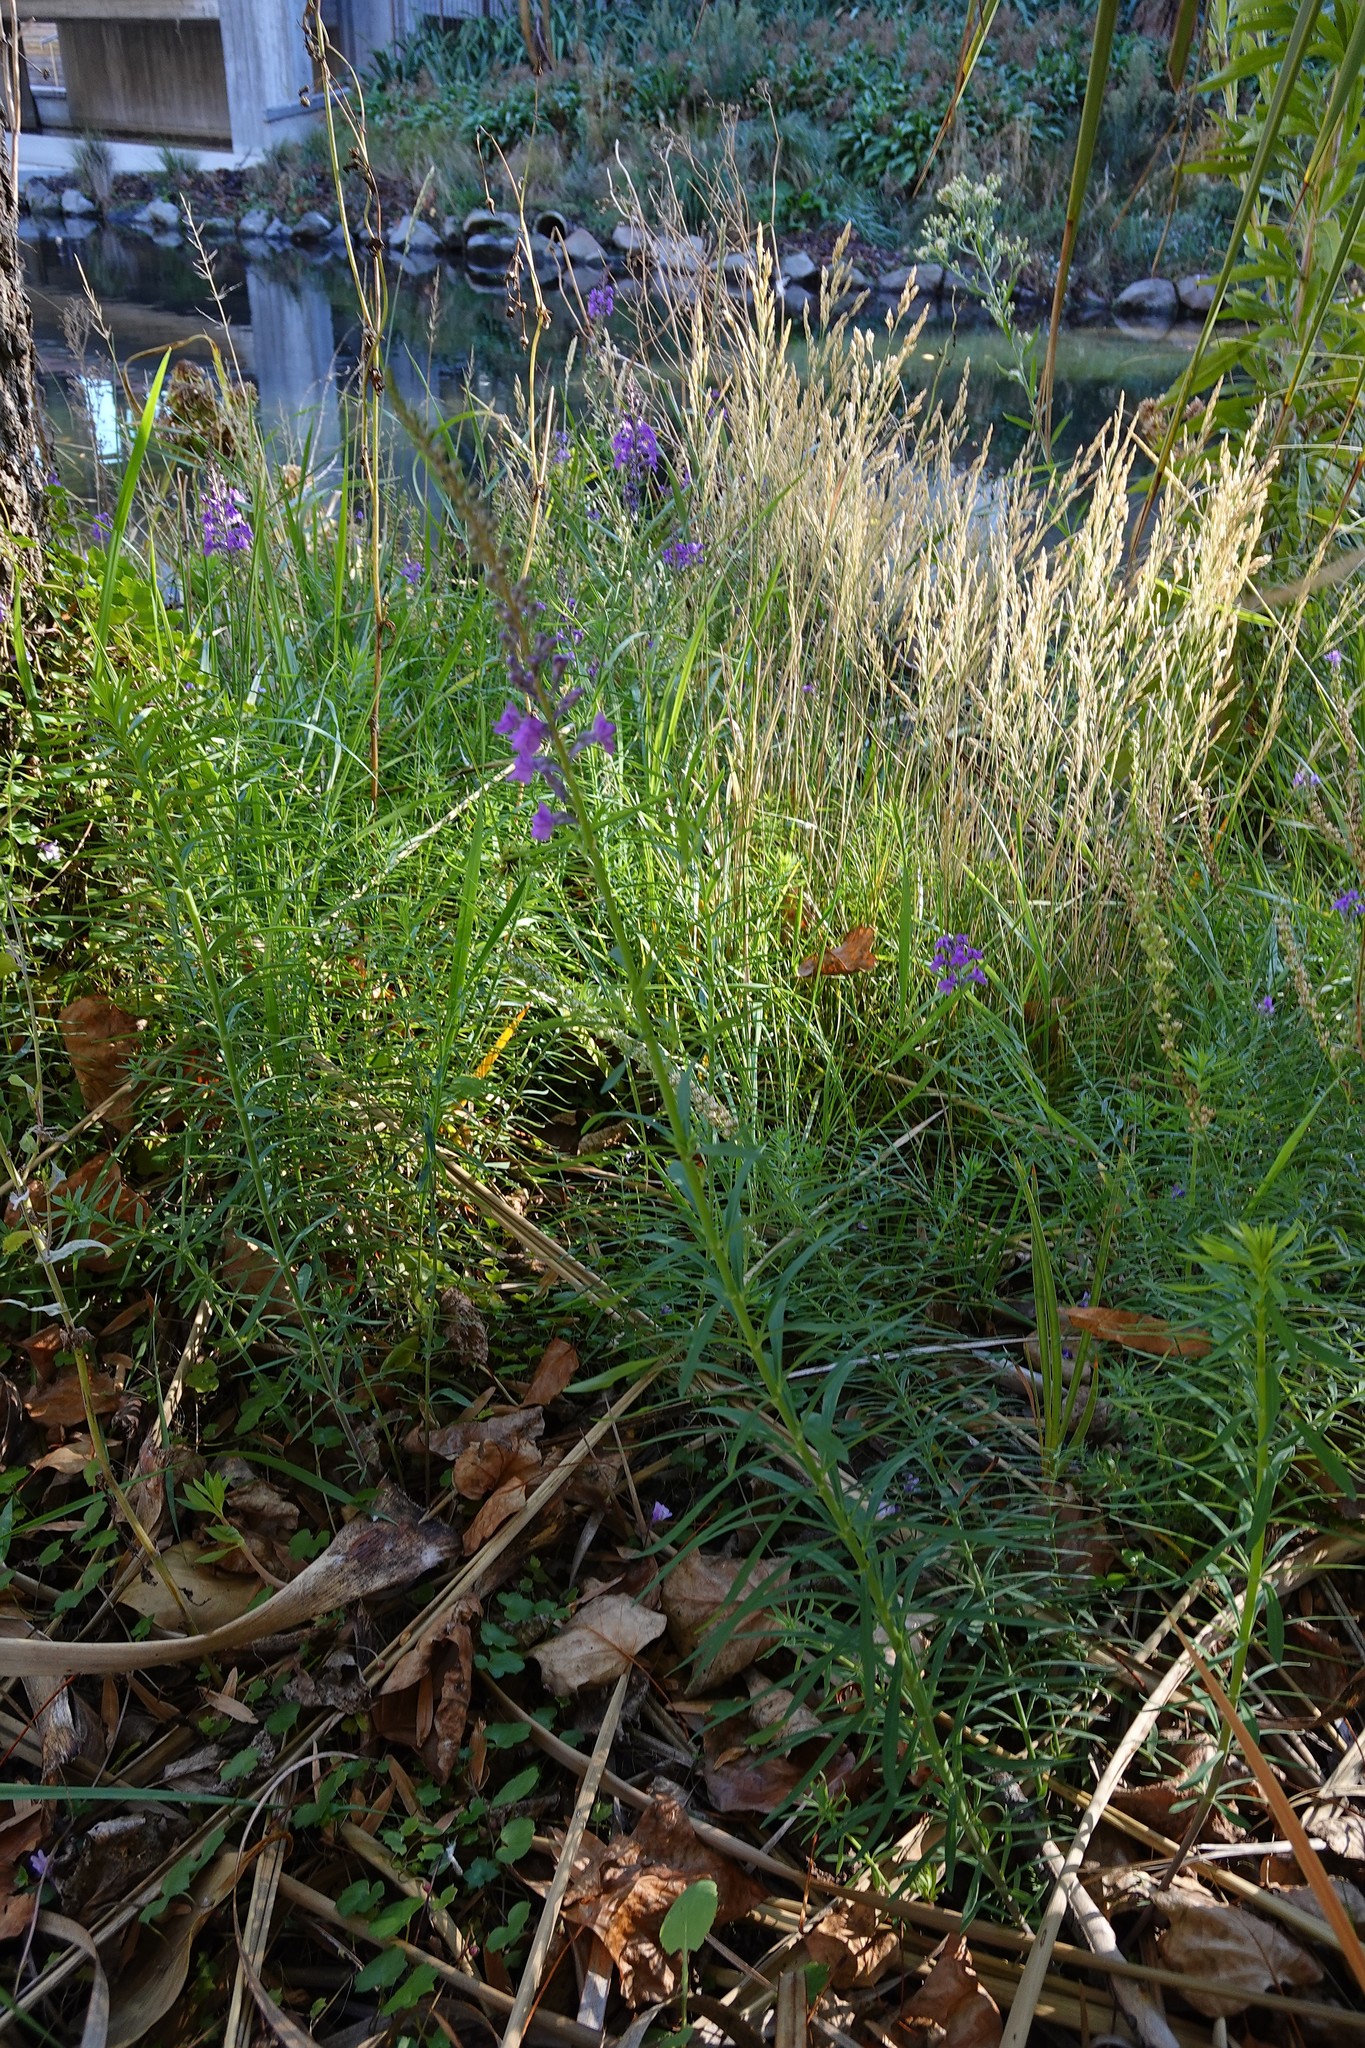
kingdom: Plantae
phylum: Tracheophyta
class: Magnoliopsida
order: Lamiales
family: Plantaginaceae
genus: Linaria
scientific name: Linaria purpurea
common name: Purple toadflax
